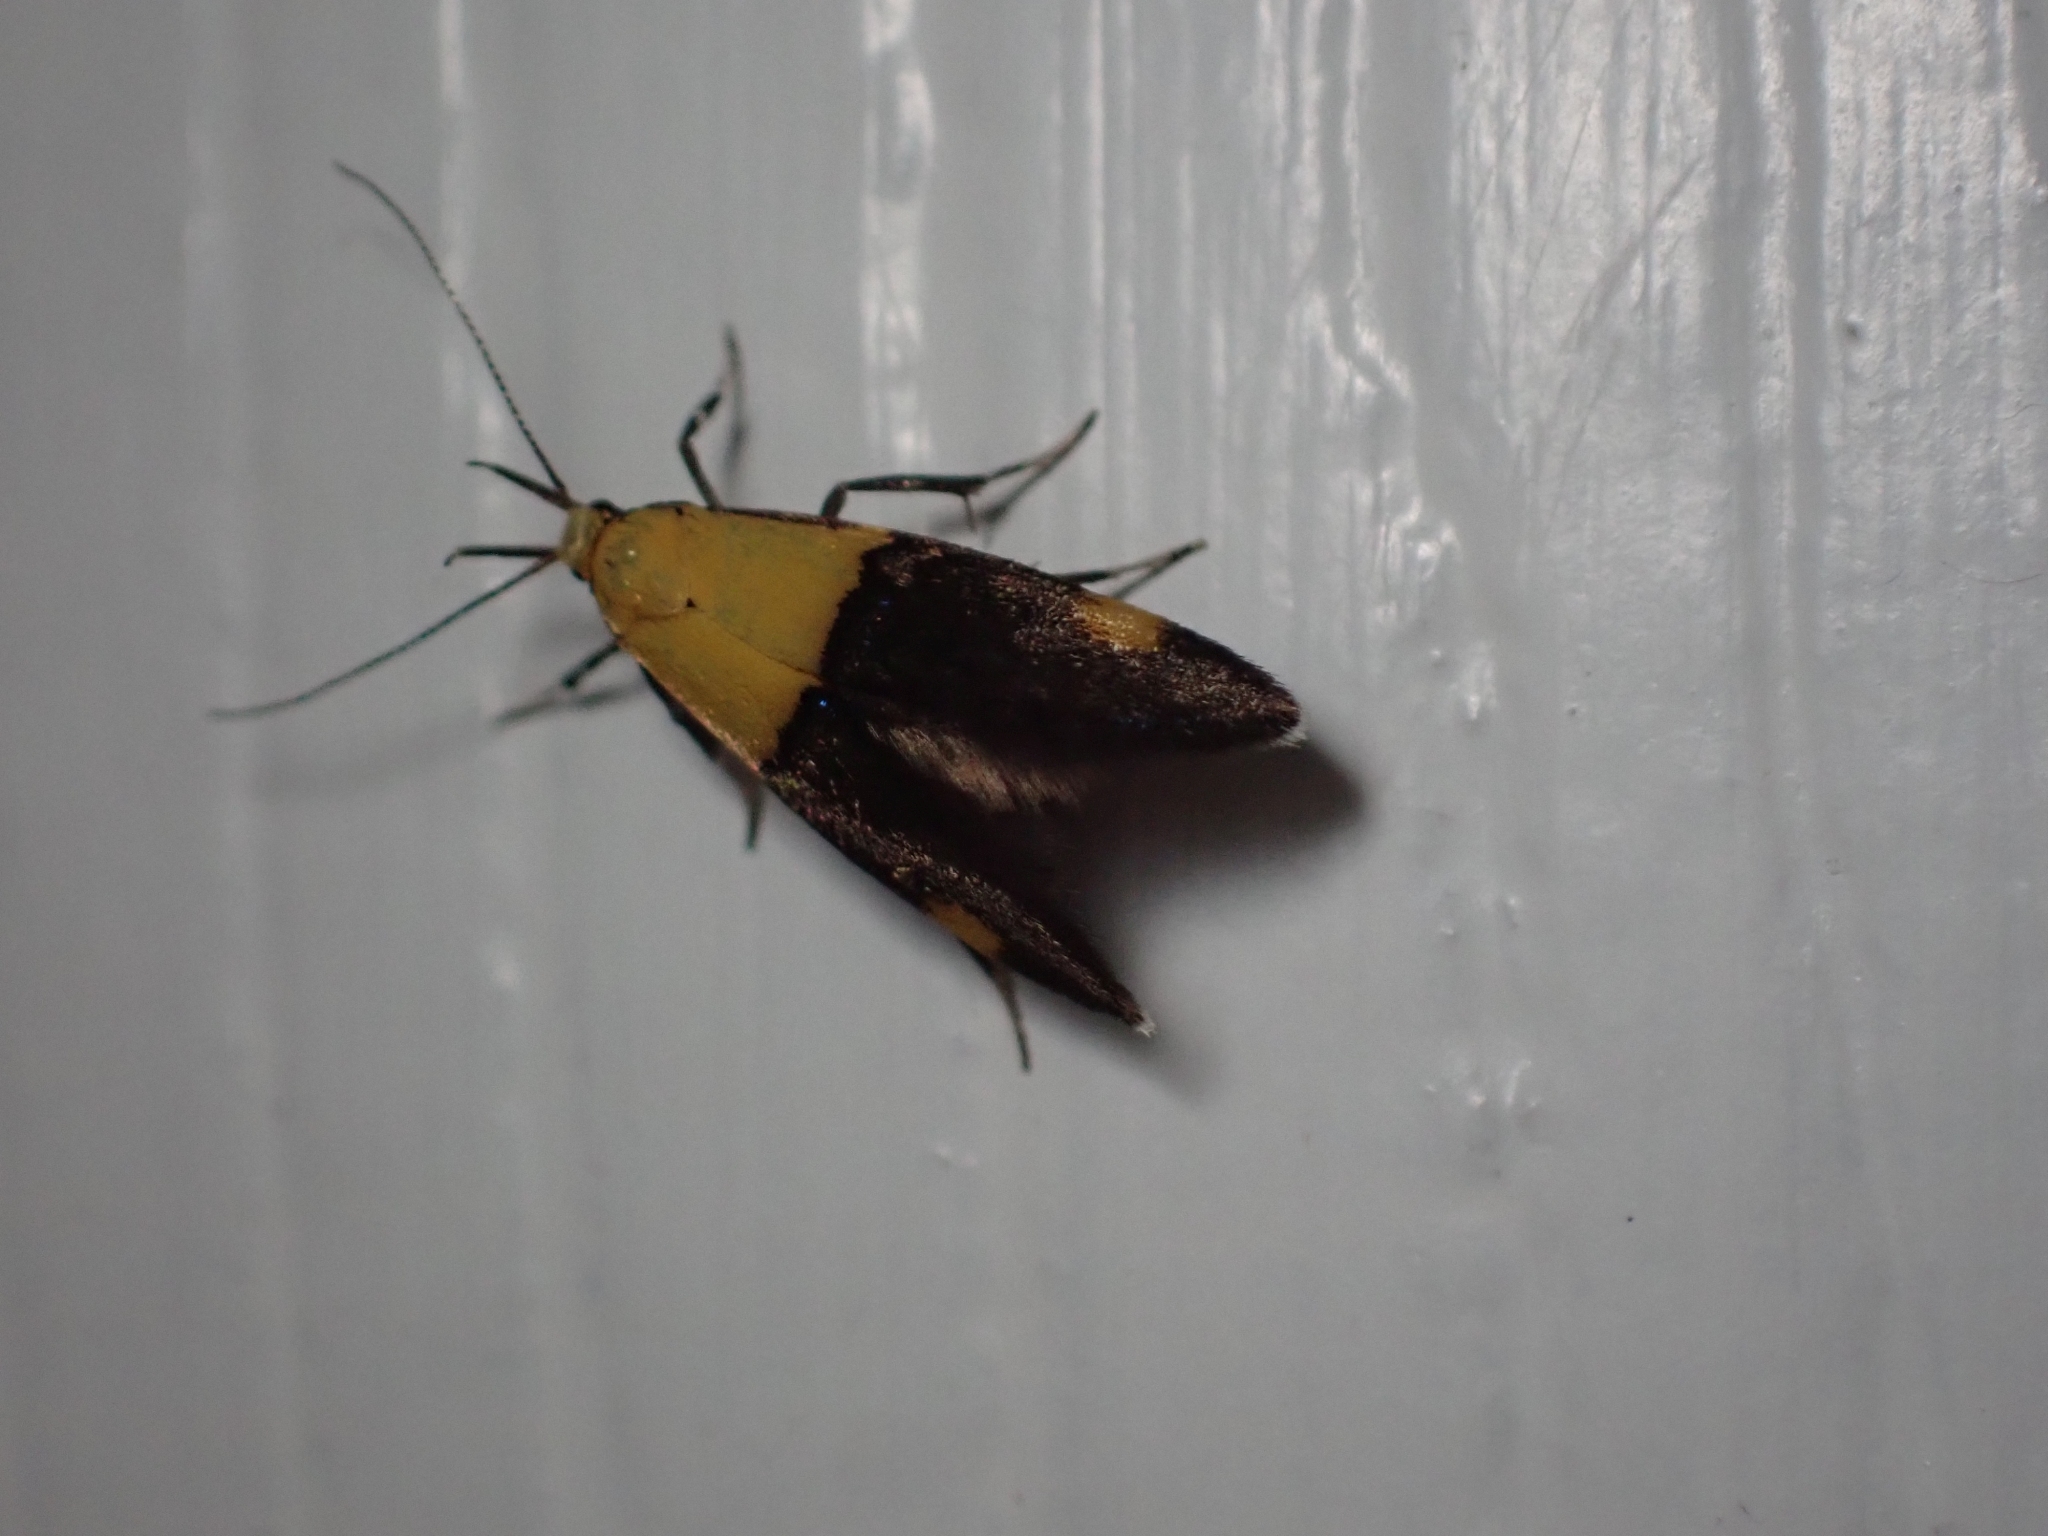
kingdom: Animalia
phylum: Arthropoda
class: Insecta
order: Lepidoptera
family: Oecophoridae
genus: Oecophora
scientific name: Oecophora bractella
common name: Gold-base tubic
